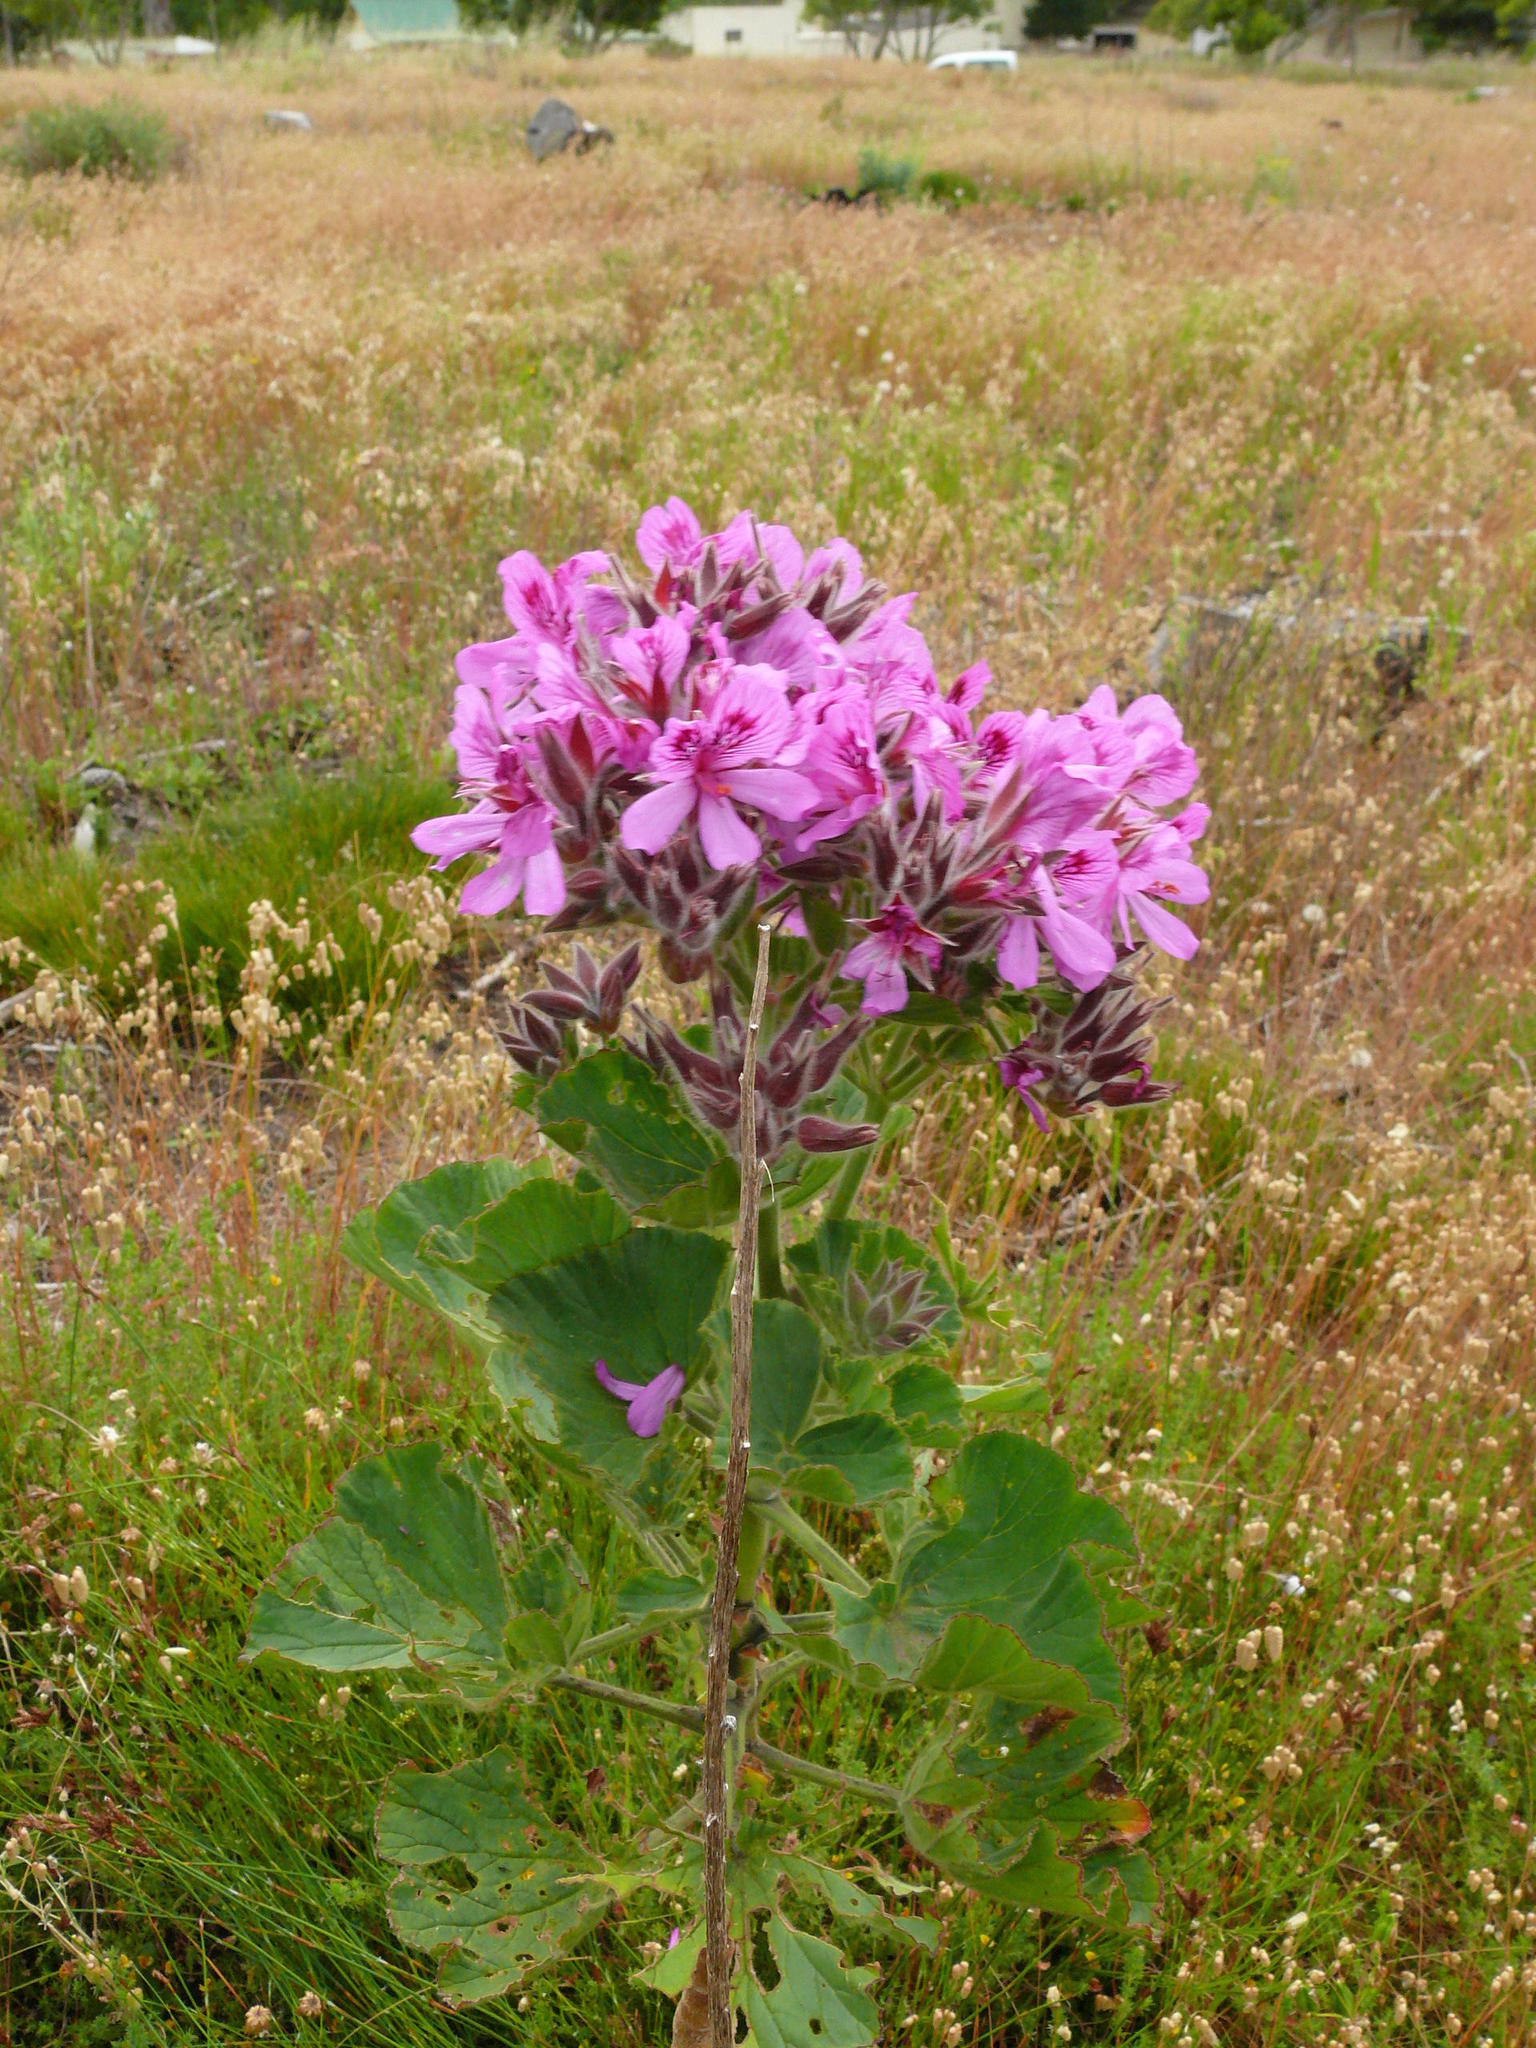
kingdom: Plantae
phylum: Tracheophyta
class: Magnoliopsida
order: Geraniales
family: Geraniaceae
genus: Pelargonium
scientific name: Pelargonium cucullatum
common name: Tree pelargonium
